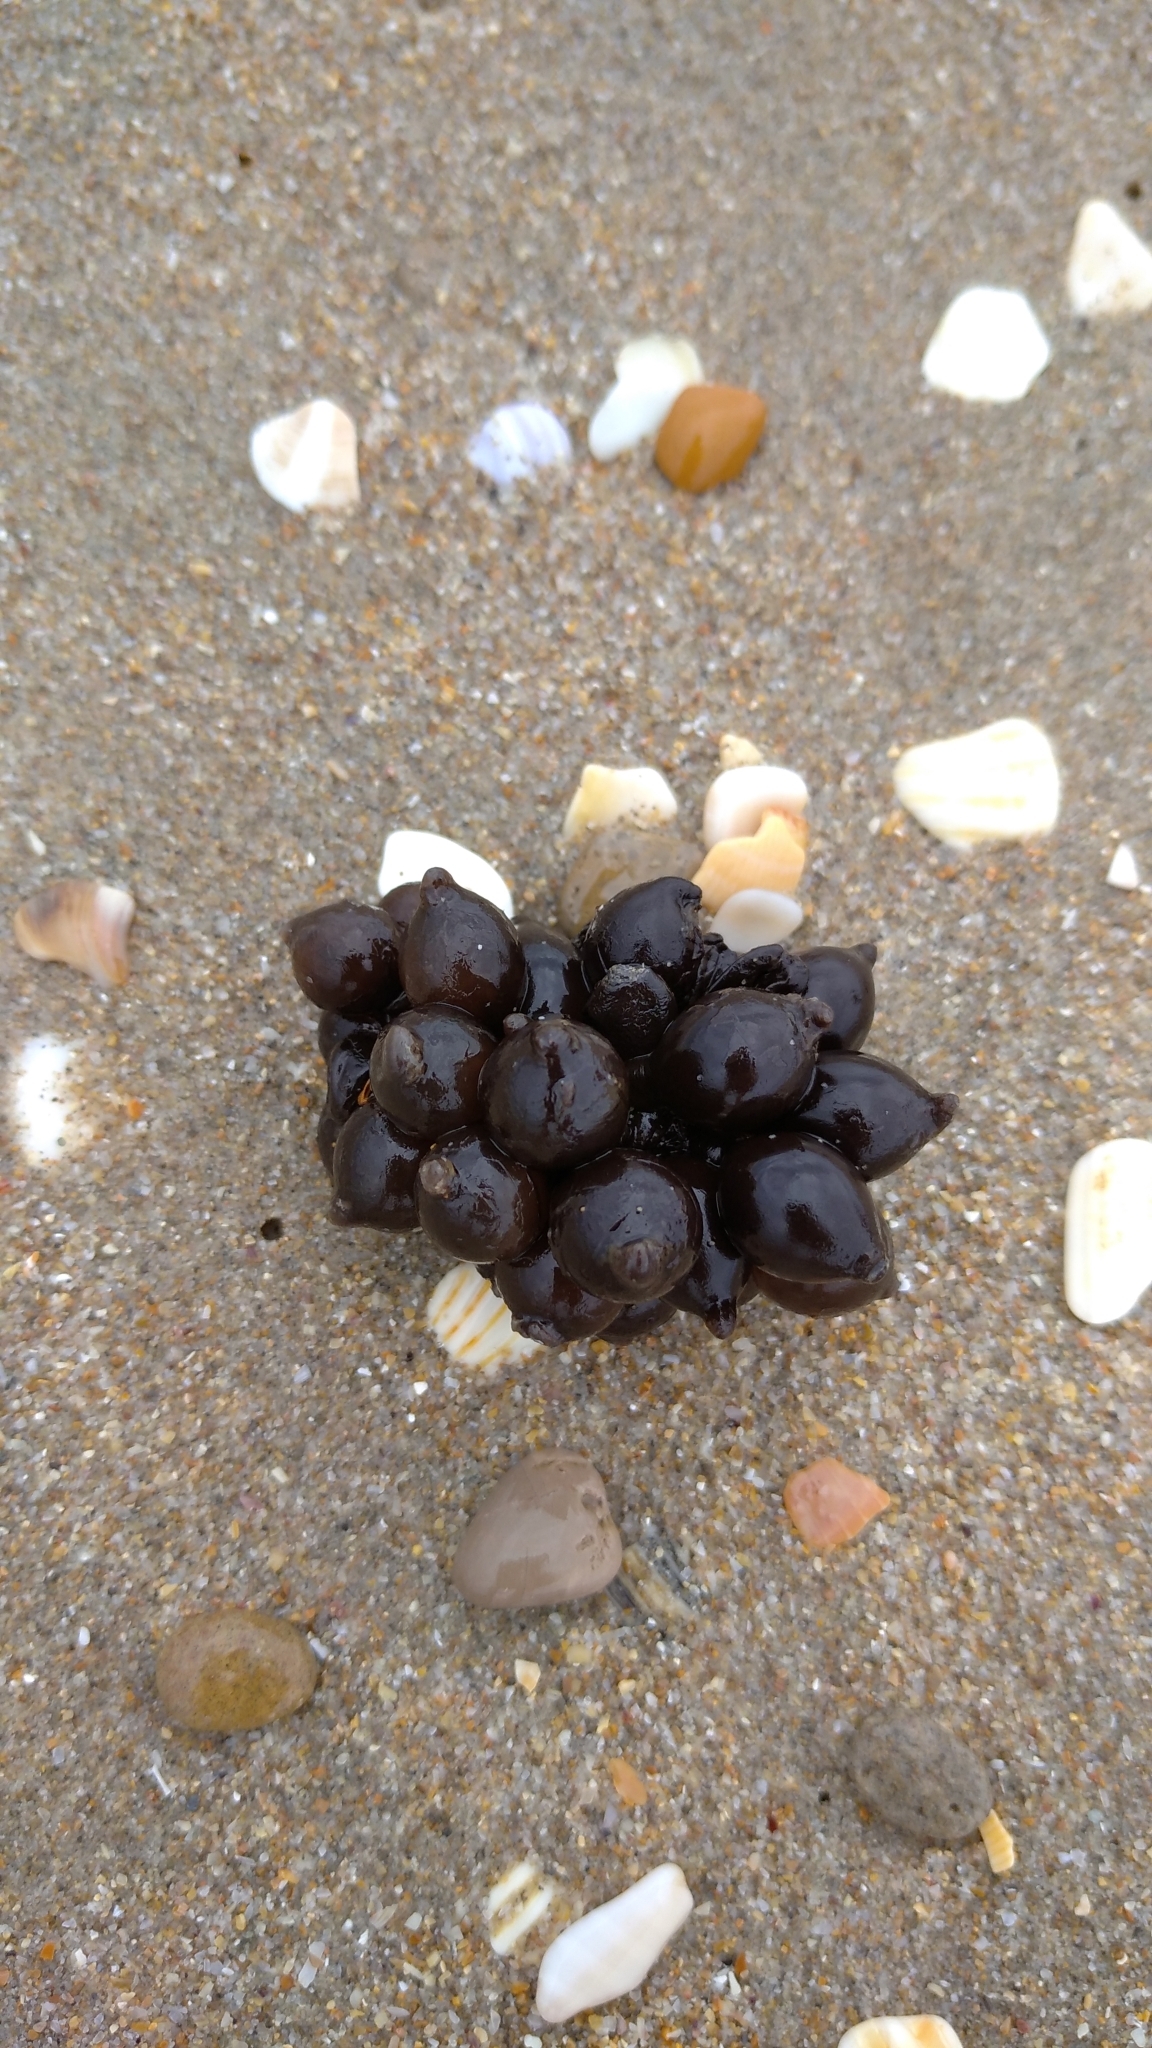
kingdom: Animalia
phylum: Mollusca
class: Cephalopoda
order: Sepiida
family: Sepiidae
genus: Sepia
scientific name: Sepia officinalis
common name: Common cuttlefish
